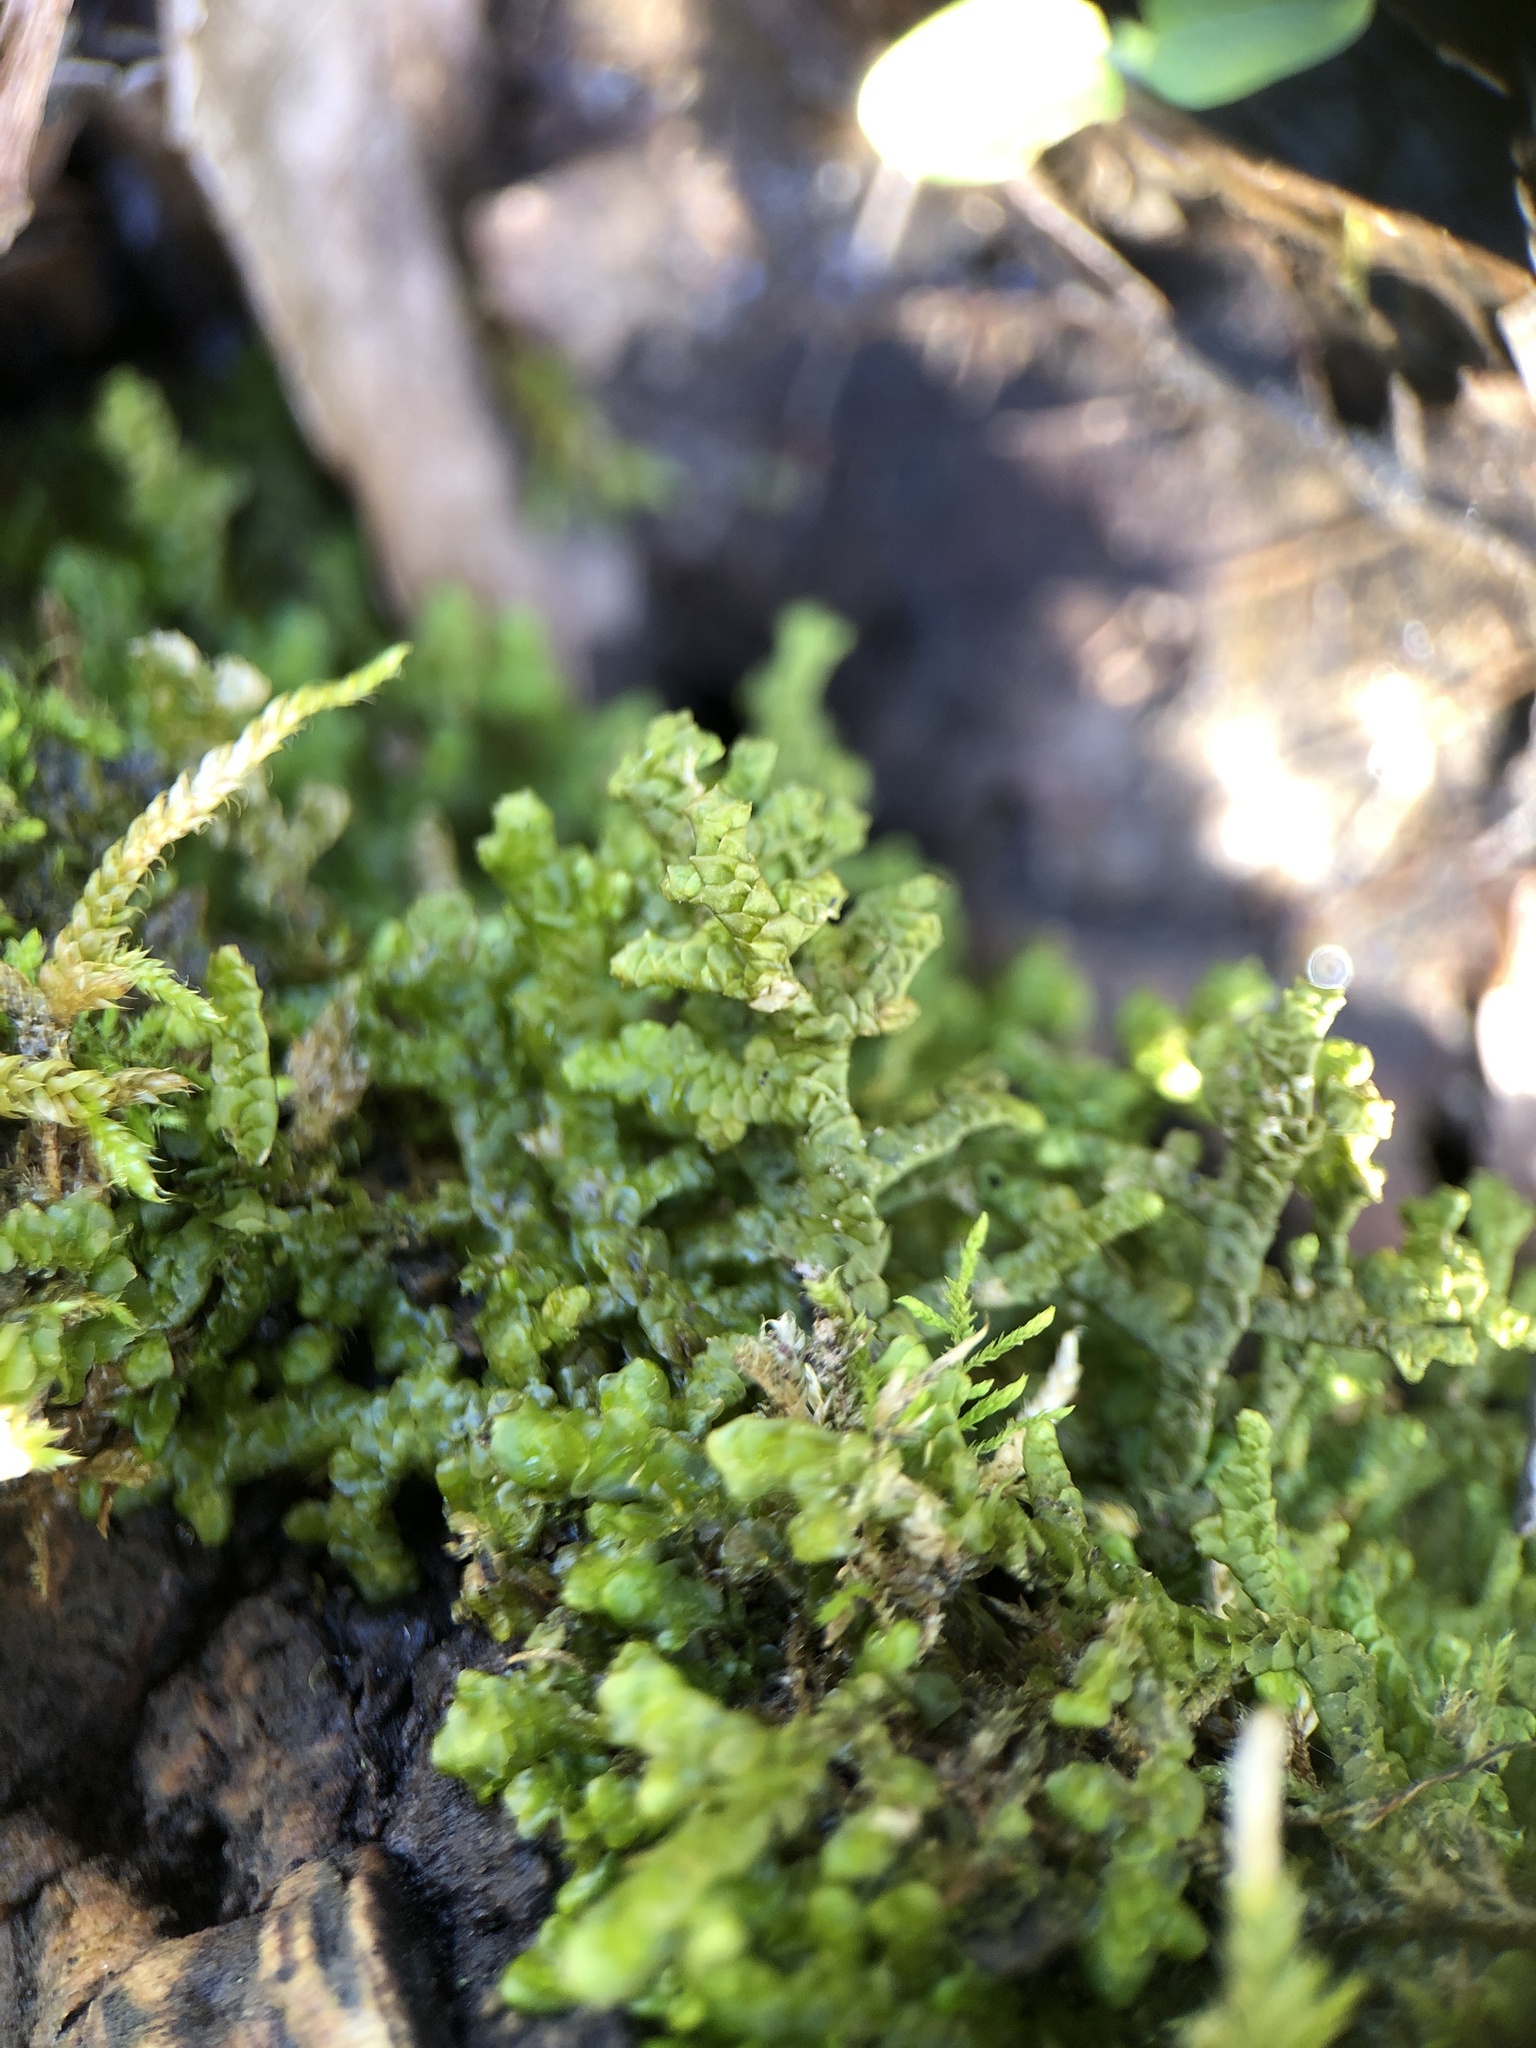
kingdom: Plantae
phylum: Marchantiophyta
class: Jungermanniopsida
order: Porellales
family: Porellaceae
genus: Porella
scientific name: Porella platyphylla
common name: Wall scalewort
